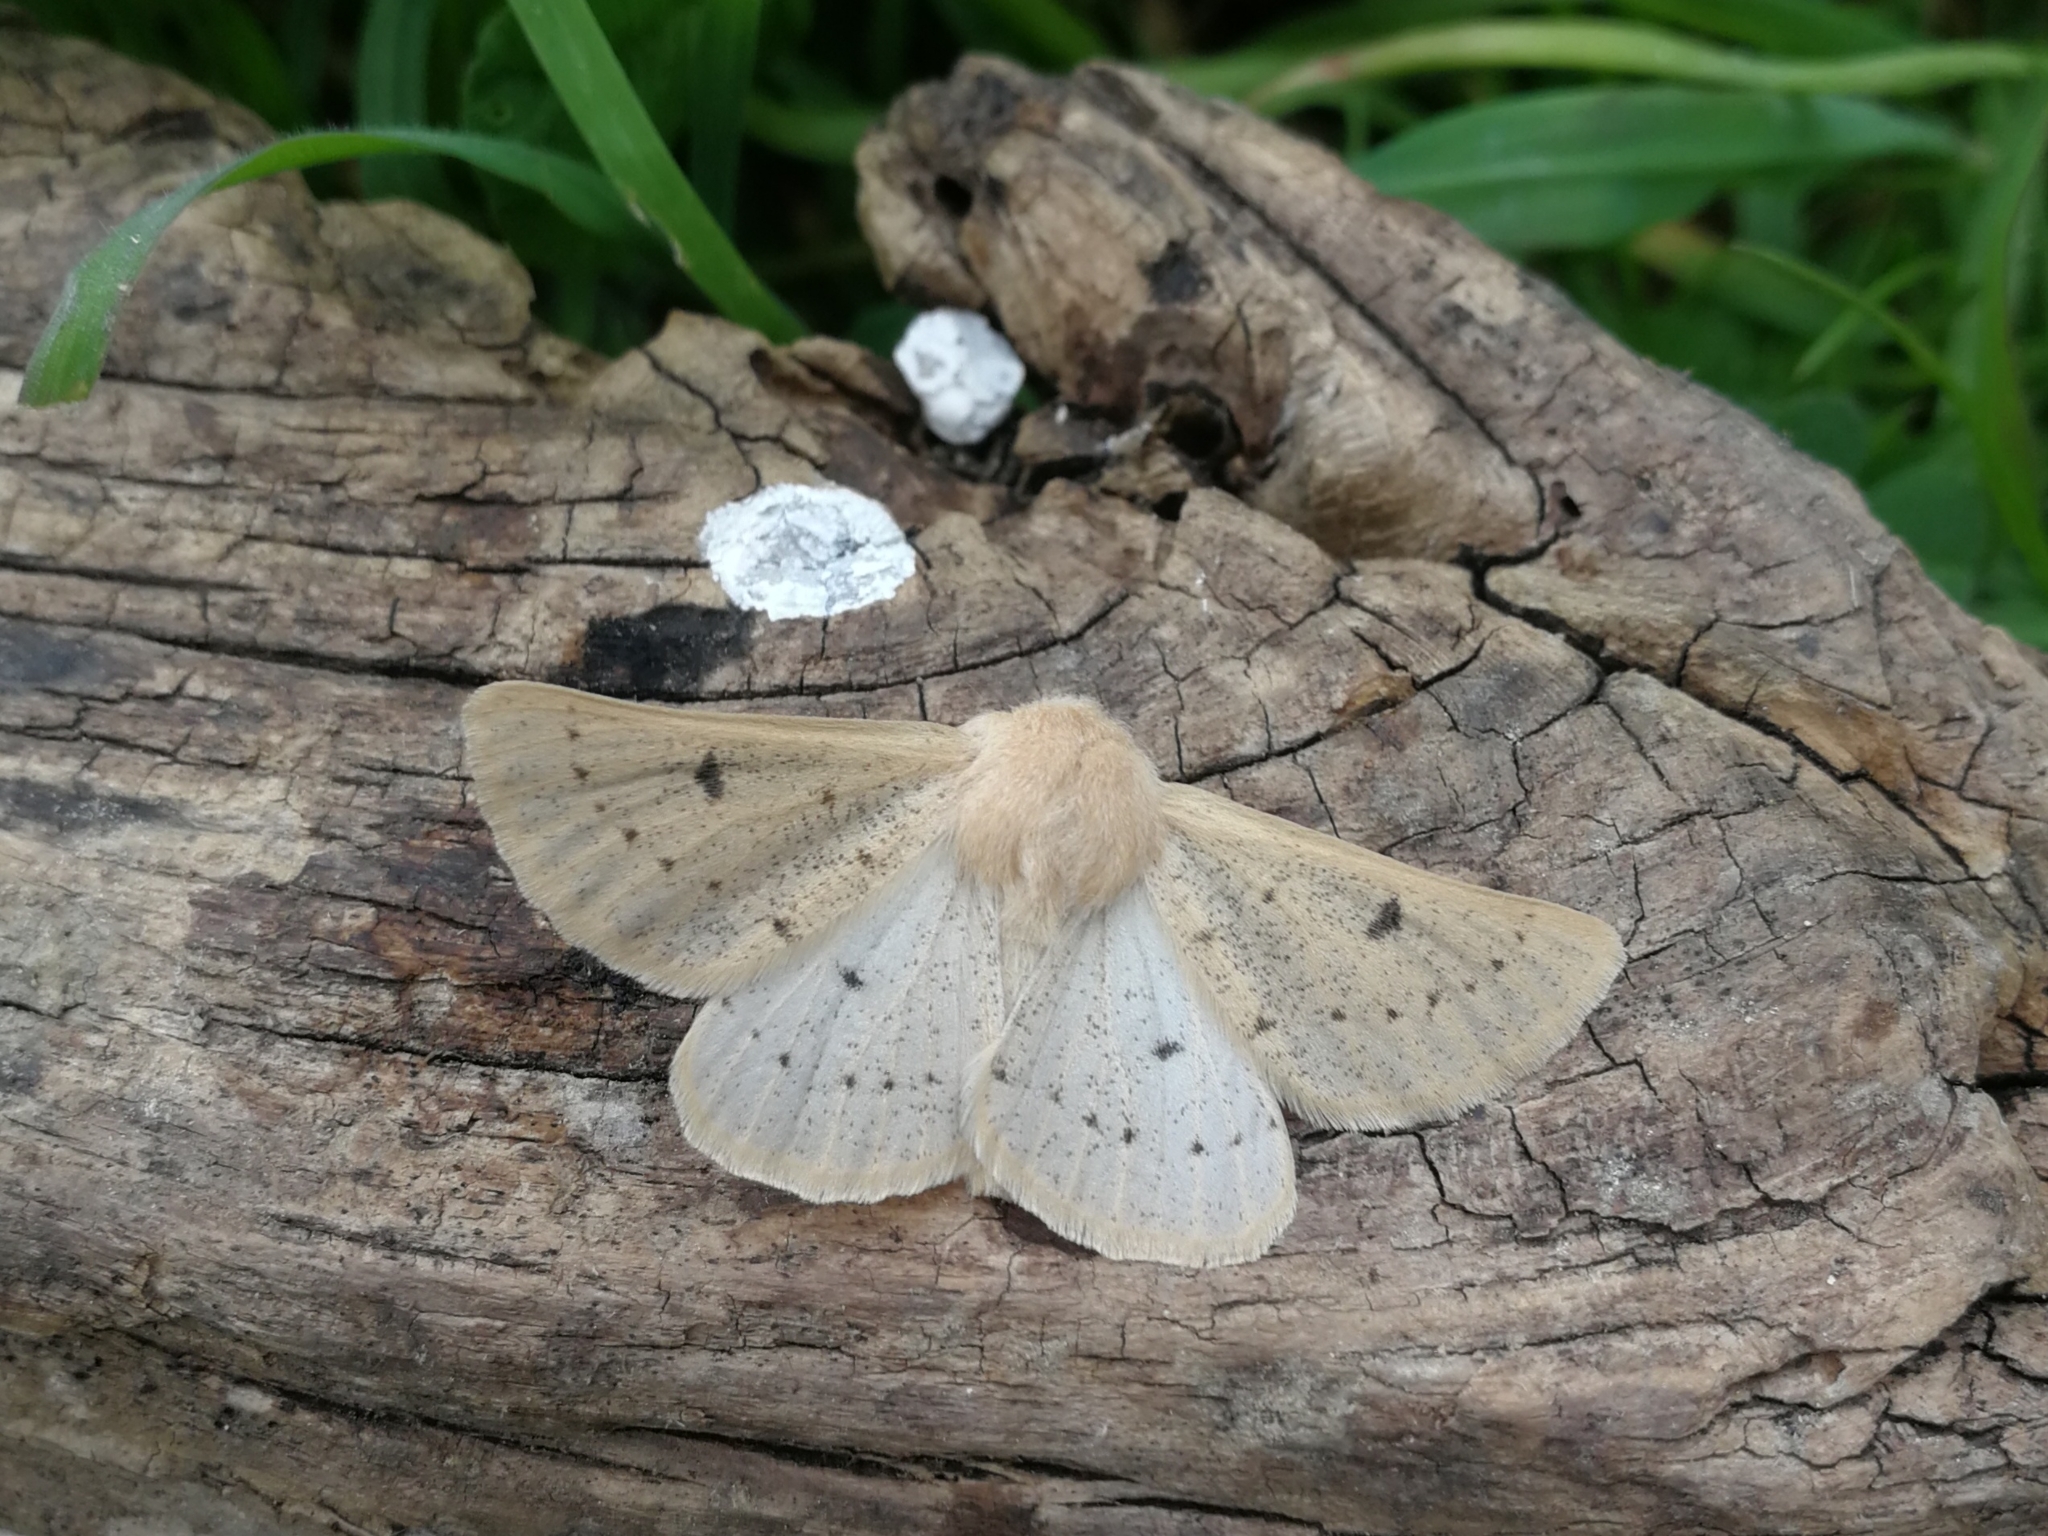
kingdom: Animalia
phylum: Arthropoda
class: Insecta
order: Lepidoptera
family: Geometridae
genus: Dyscia
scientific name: Dyscia lentiscaria
